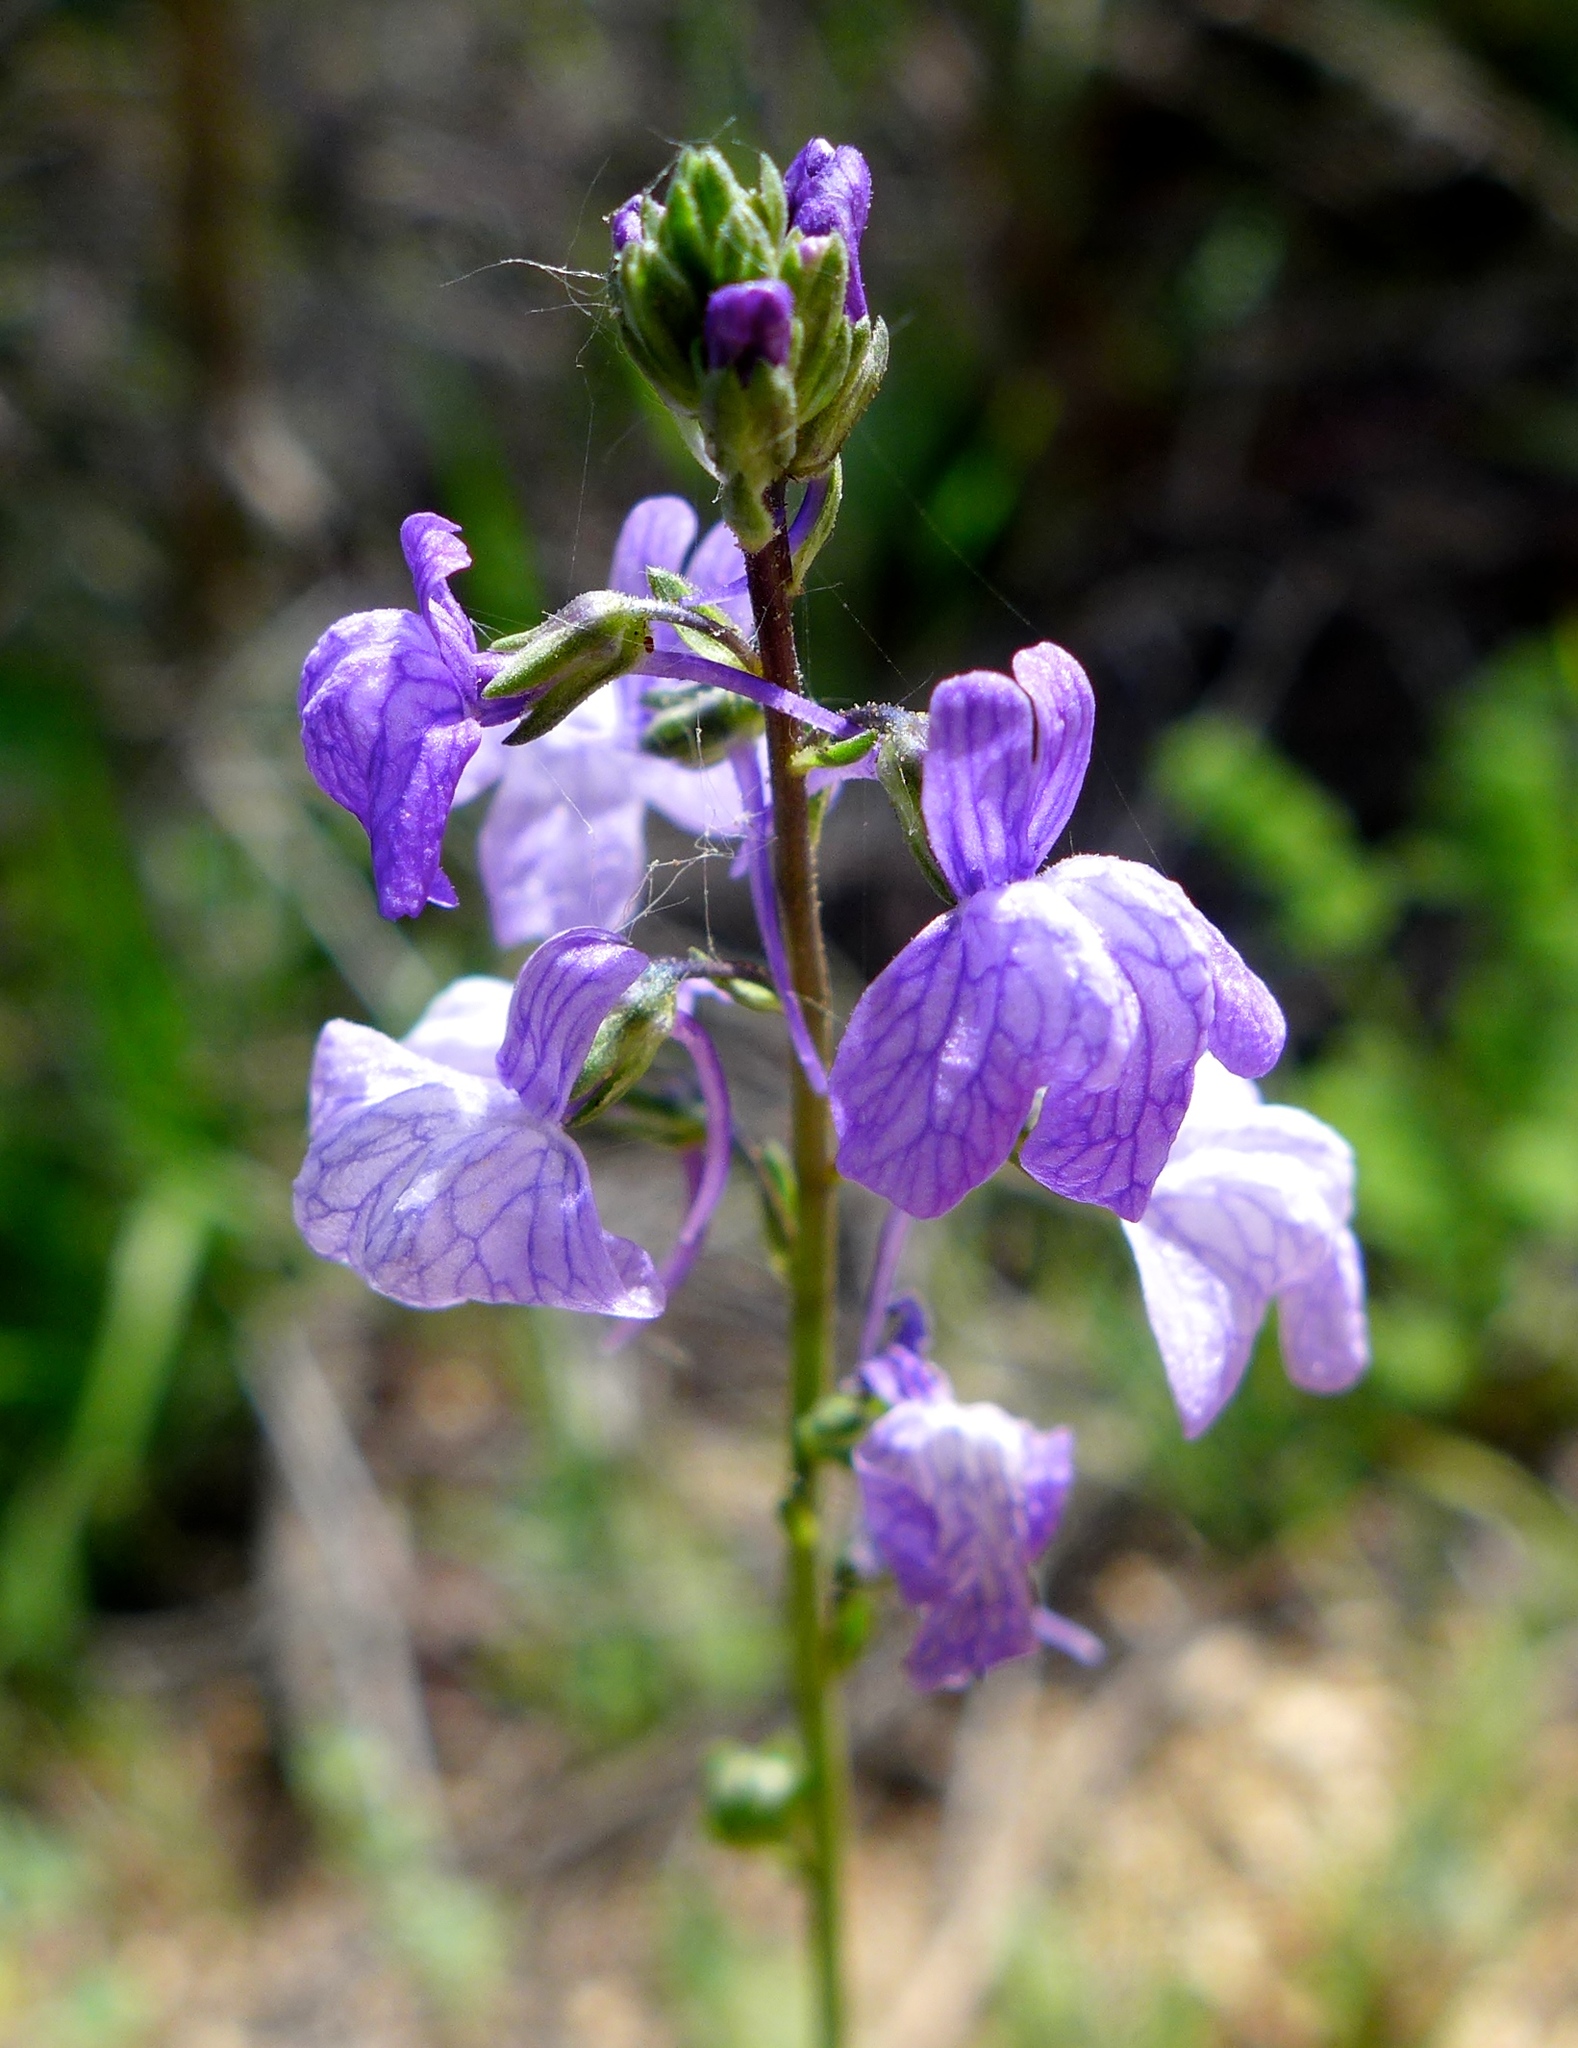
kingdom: Plantae
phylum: Tracheophyta
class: Magnoliopsida
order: Lamiales
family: Plantaginaceae
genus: Nuttallanthus
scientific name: Nuttallanthus texanus
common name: Texas toadflax
